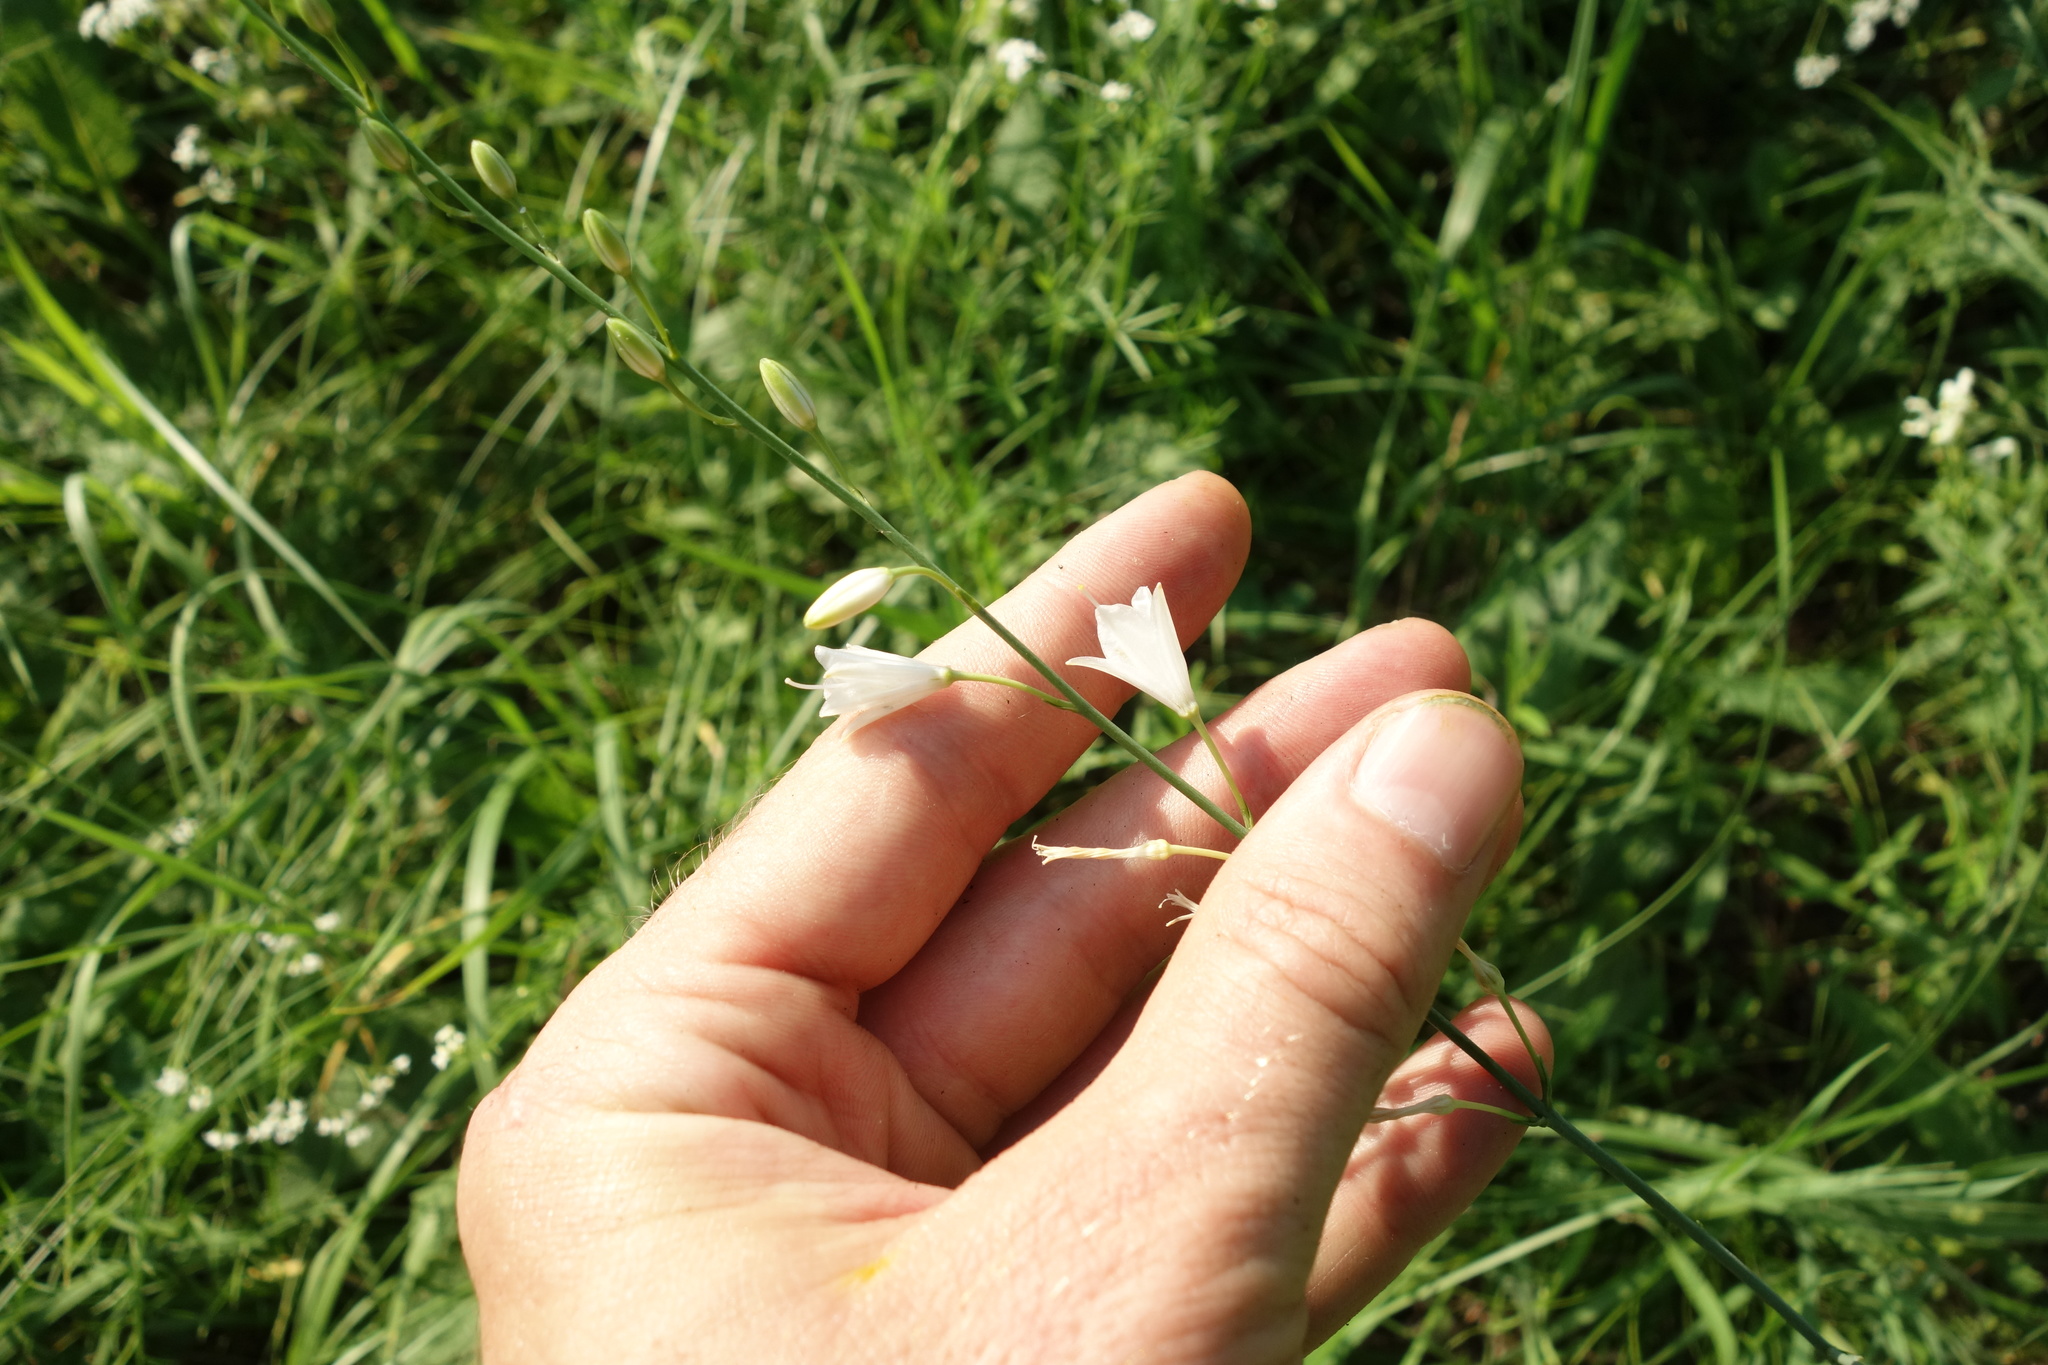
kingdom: Plantae
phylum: Tracheophyta
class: Liliopsida
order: Asparagales
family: Asparagaceae
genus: Anthericum
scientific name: Anthericum ramosum
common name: Branched st. bernard's-lily
